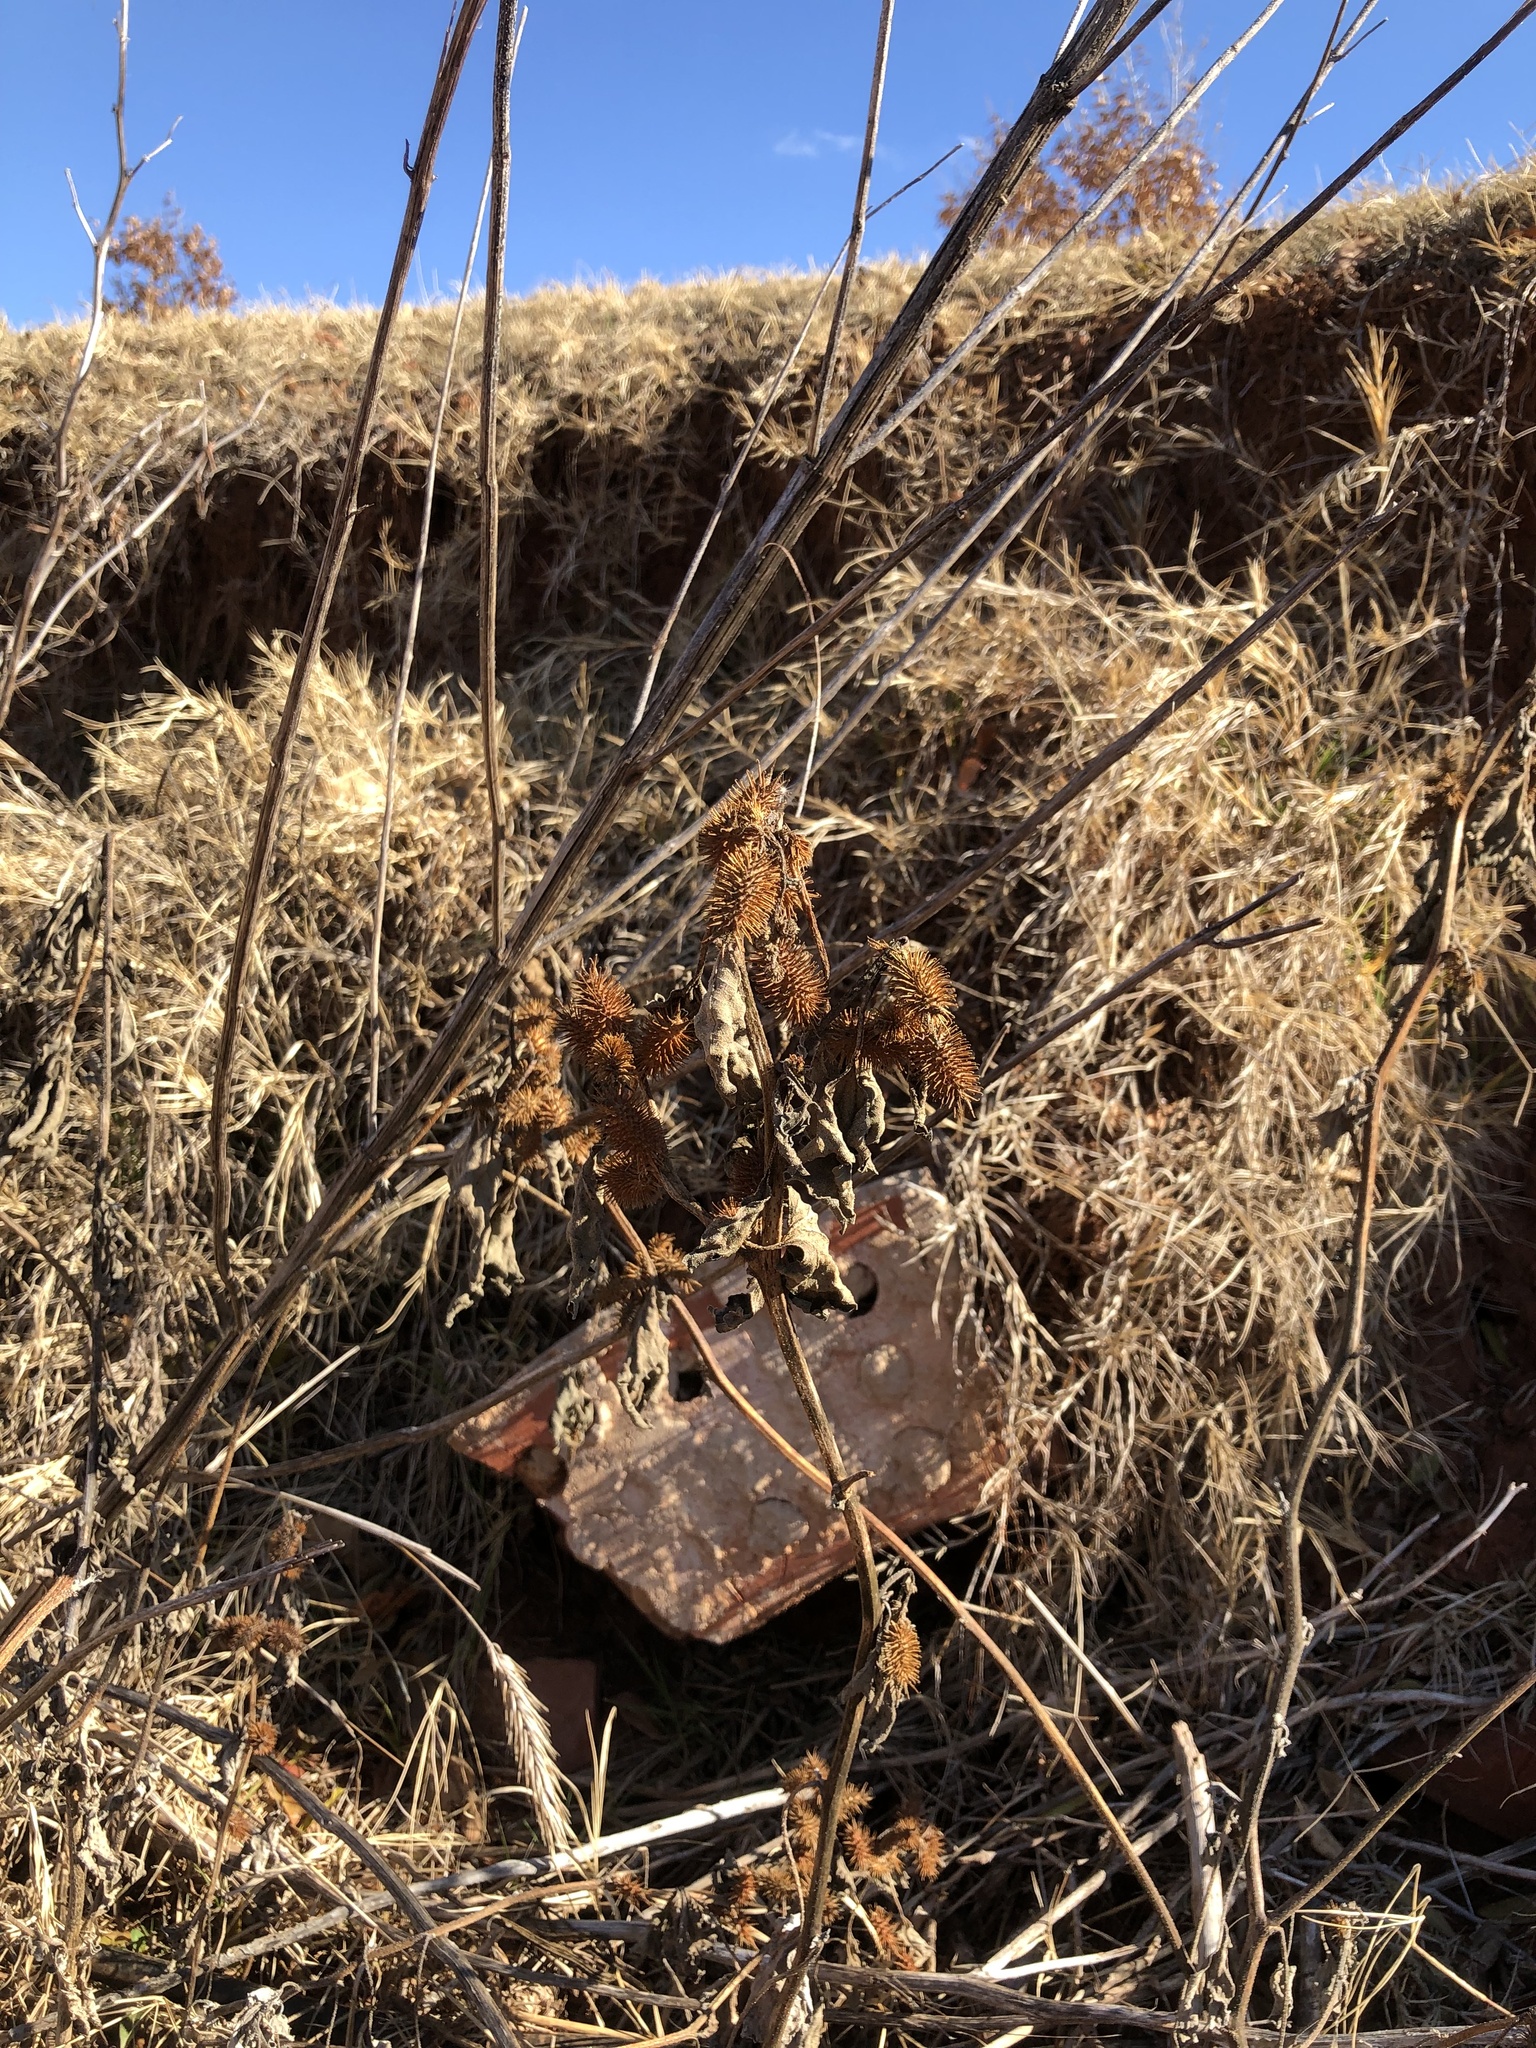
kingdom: Plantae
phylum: Tracheophyta
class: Magnoliopsida
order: Asterales
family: Asteraceae
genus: Xanthium
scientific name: Xanthium strumarium
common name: Rough cocklebur
